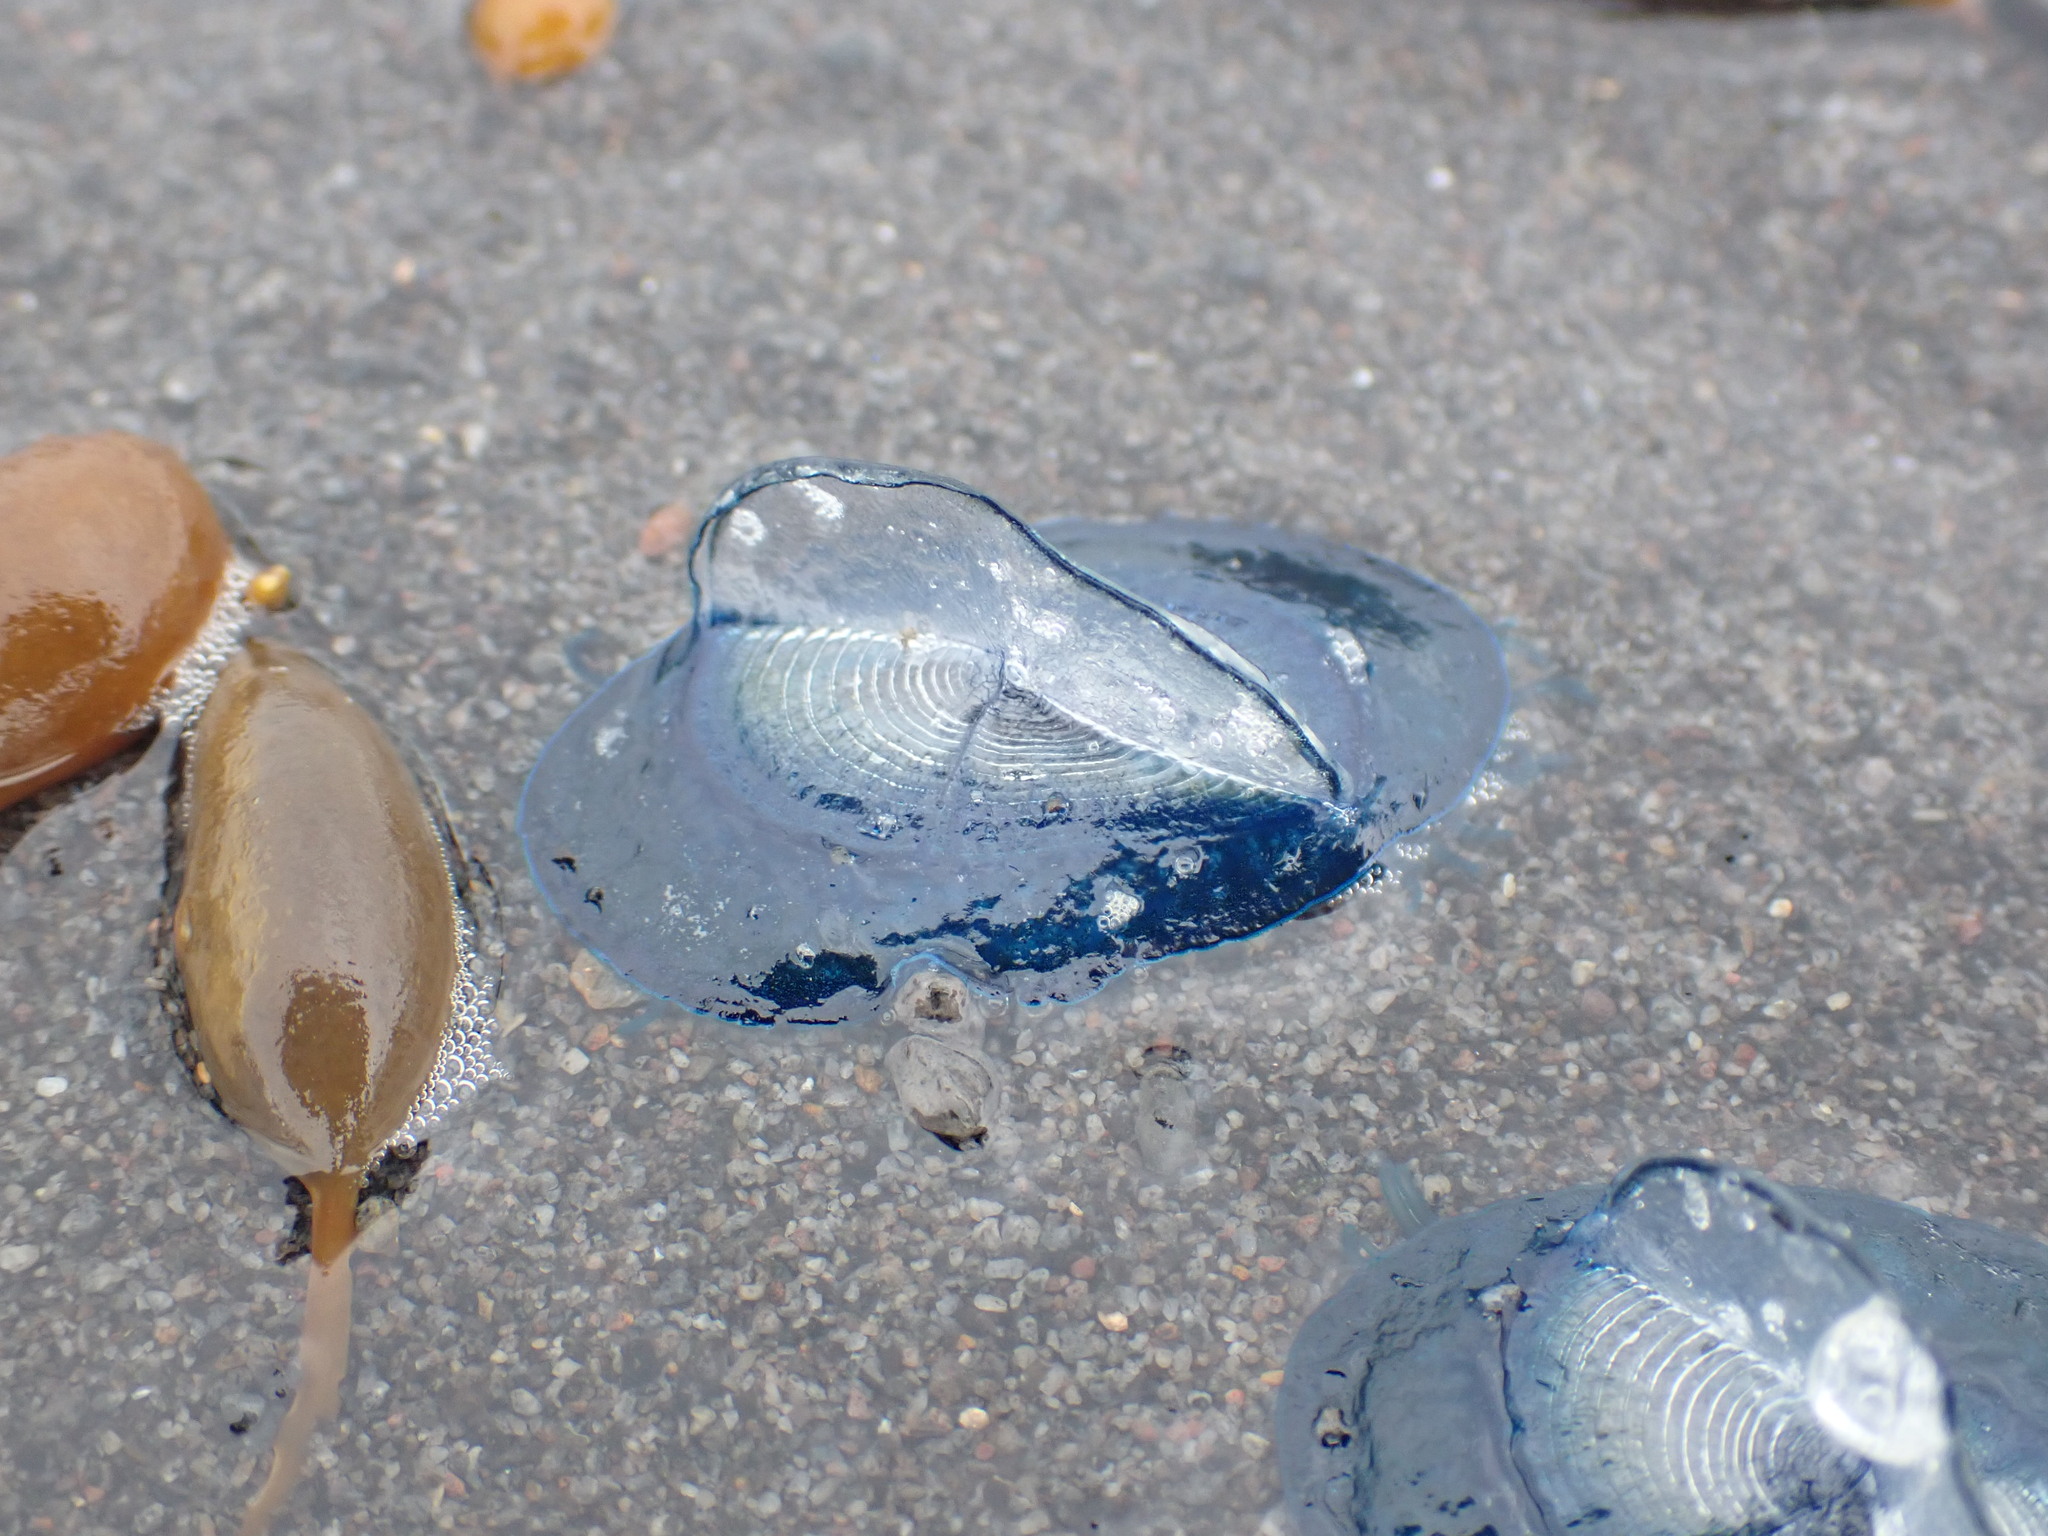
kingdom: Animalia
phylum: Cnidaria
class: Hydrozoa
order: Anthoathecata
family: Porpitidae
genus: Velella
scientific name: Velella velella
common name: By-the-wind-sailor
